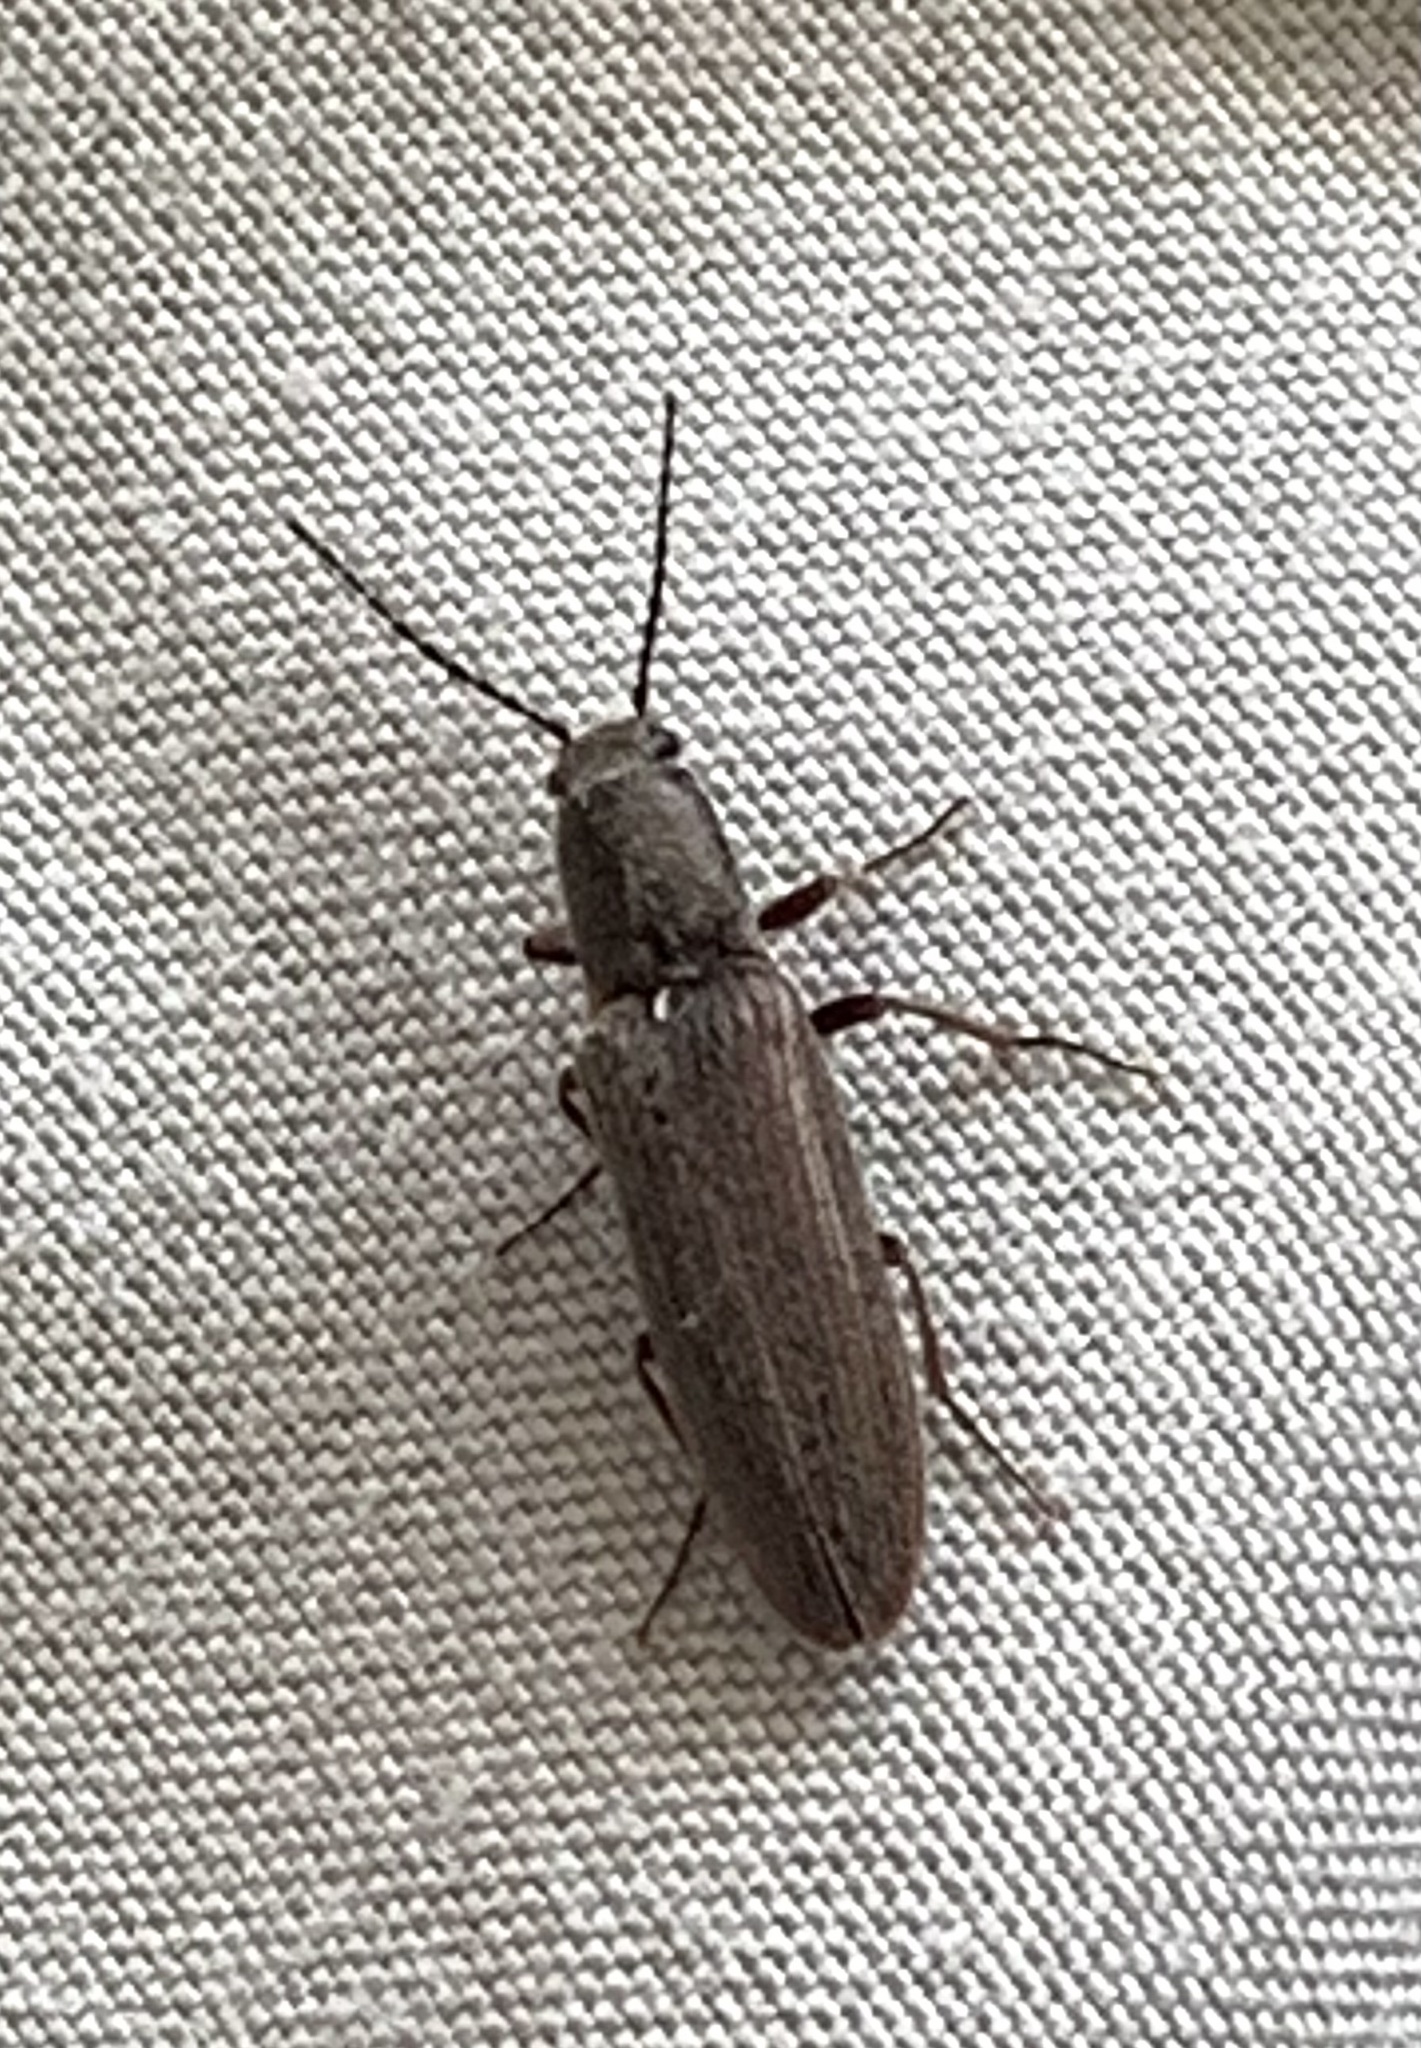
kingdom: Animalia
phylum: Arthropoda
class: Insecta
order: Coleoptera
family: Elateridae
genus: Sylvanelater
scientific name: Sylvanelater cylindriformis
